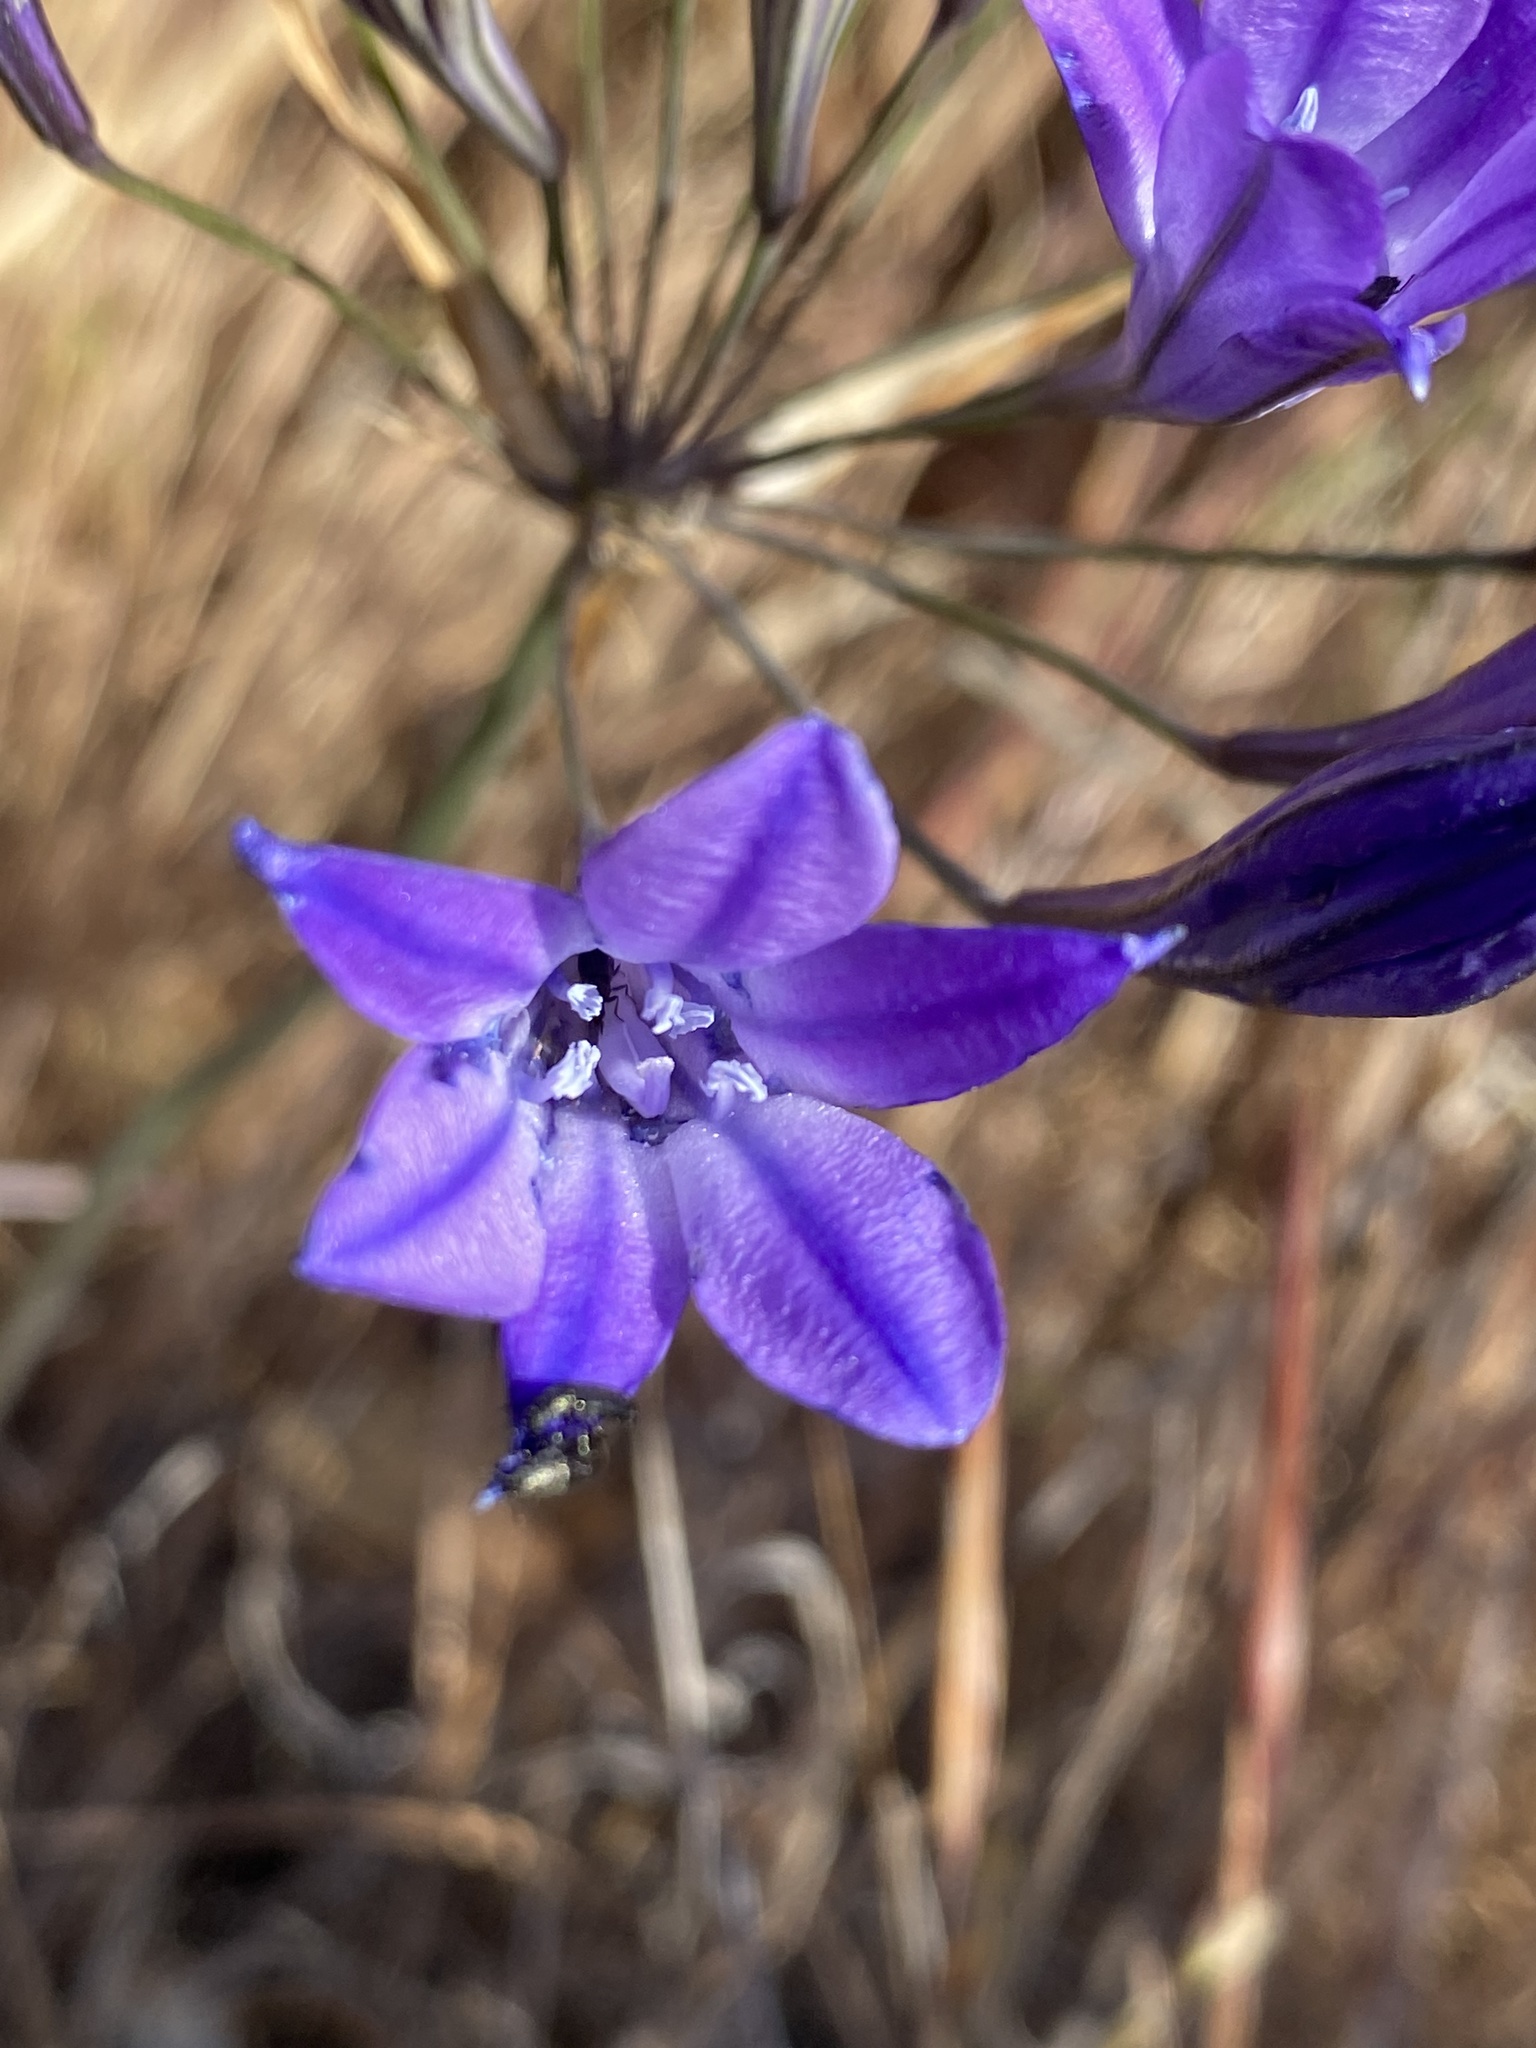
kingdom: Plantae
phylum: Tracheophyta
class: Liliopsida
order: Asparagales
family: Asparagaceae
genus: Triteleia
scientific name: Triteleia laxa
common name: Triplet-lily
